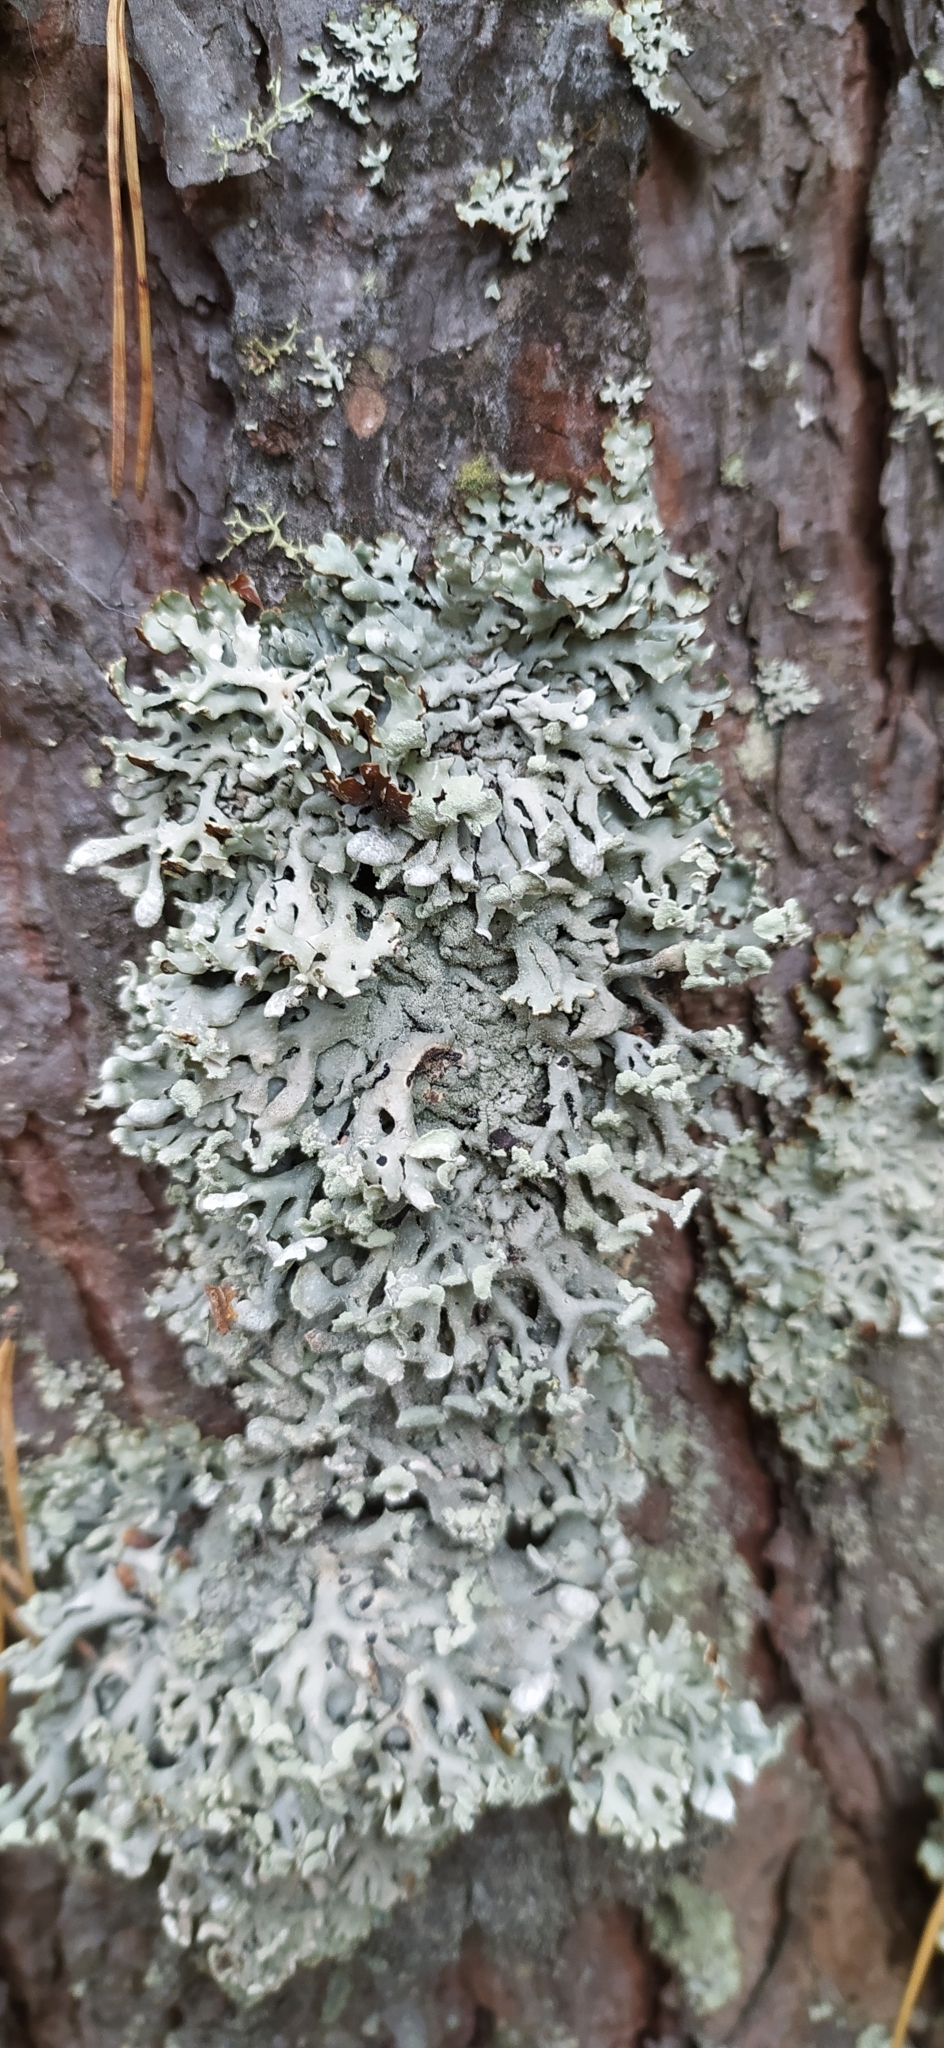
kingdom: Fungi
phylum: Ascomycota
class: Lecanoromycetes
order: Lecanorales
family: Parmeliaceae
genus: Hypogymnia
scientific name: Hypogymnia physodes
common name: Dark crottle
